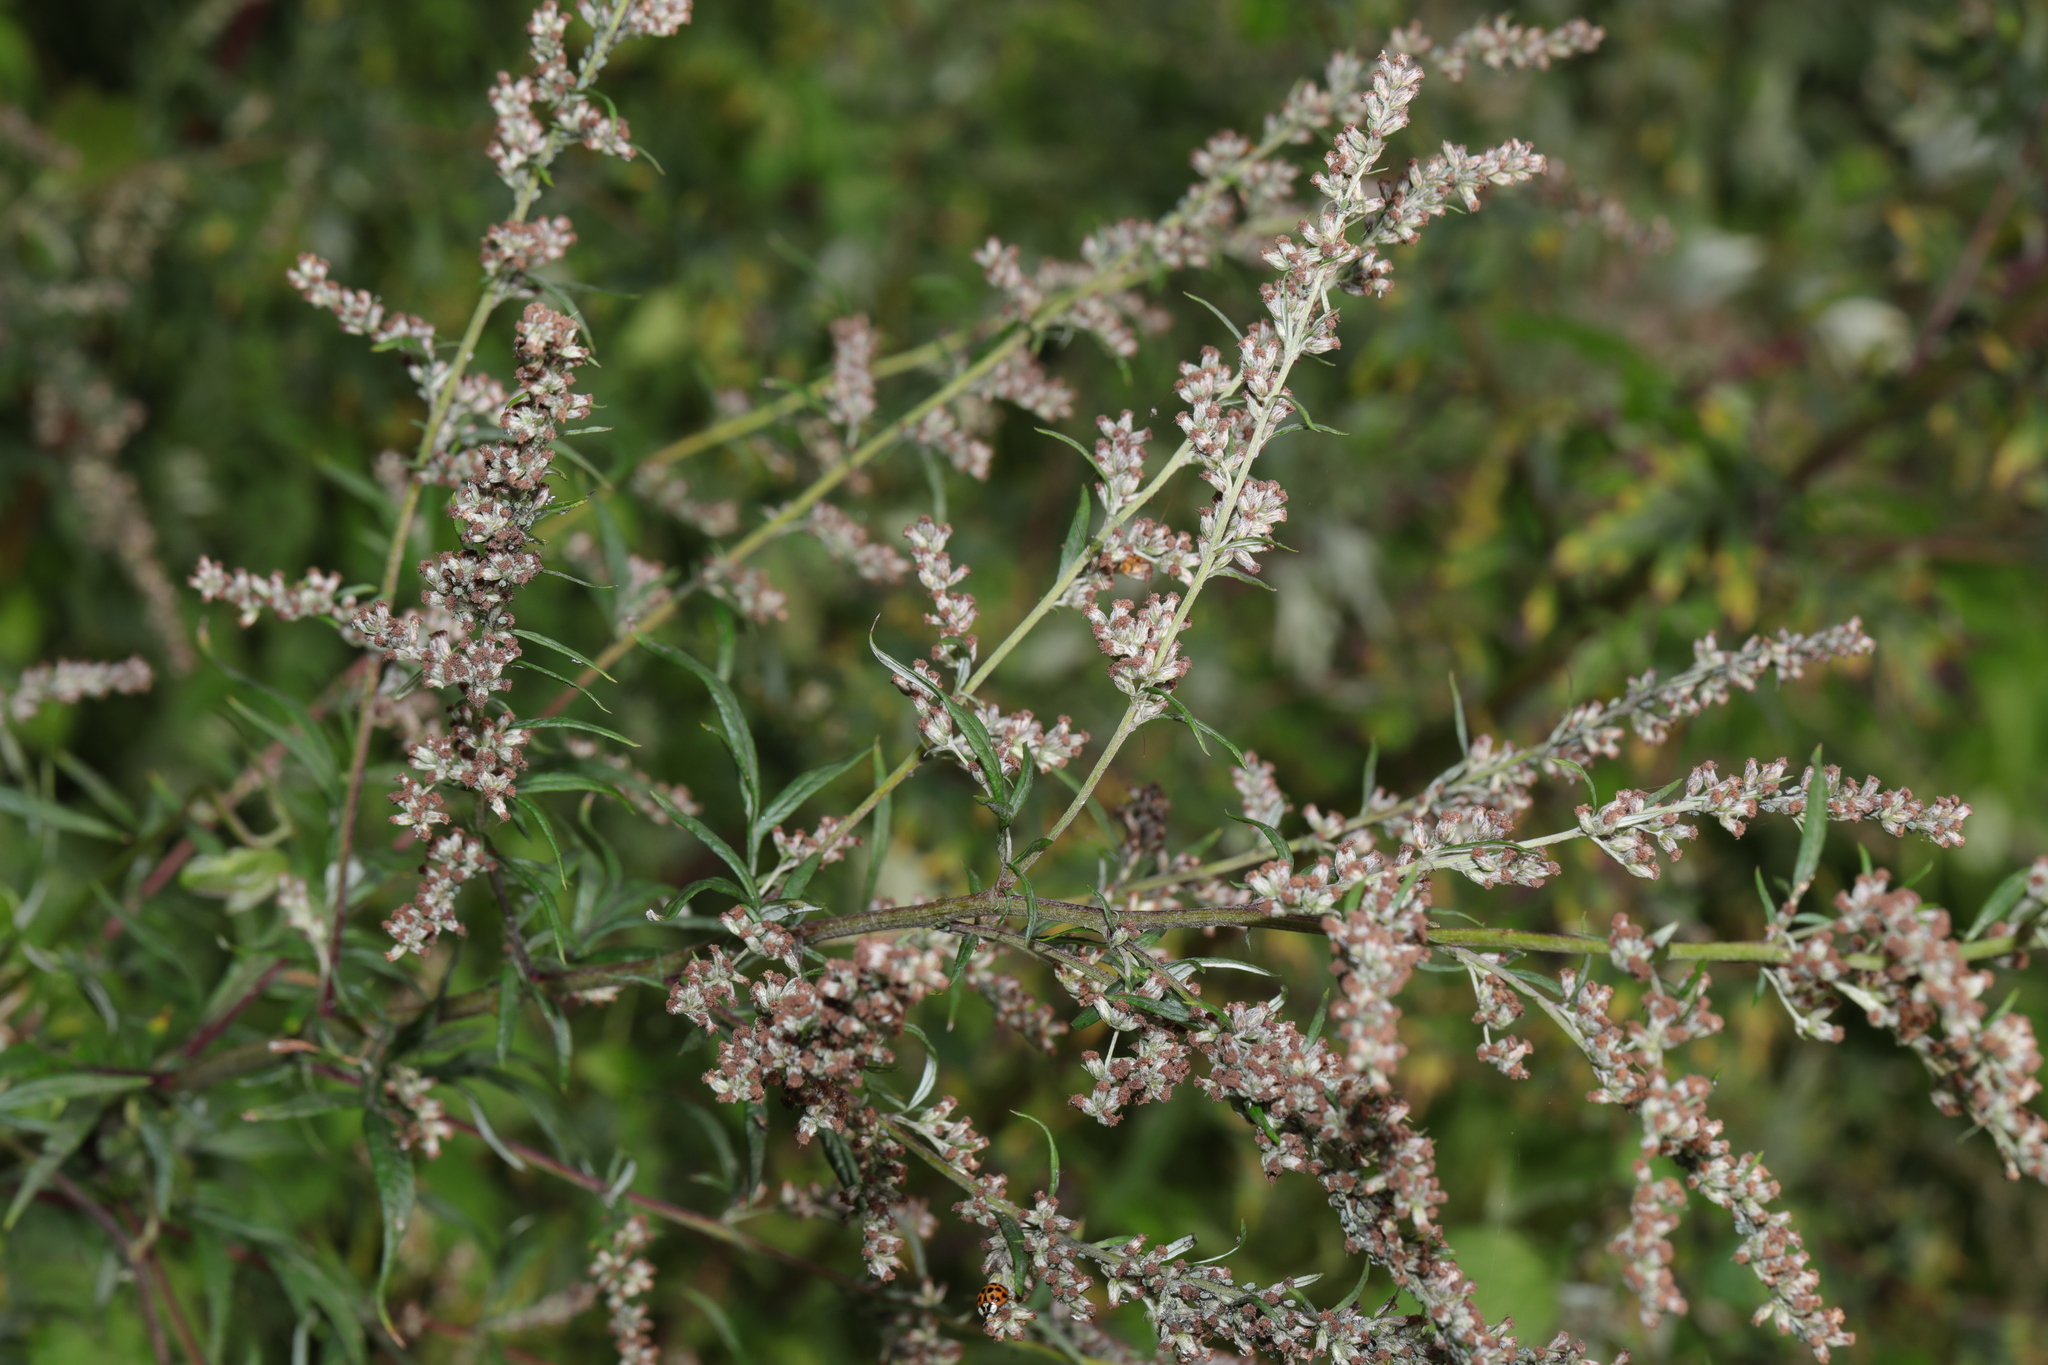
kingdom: Plantae
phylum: Tracheophyta
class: Magnoliopsida
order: Asterales
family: Asteraceae
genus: Artemisia
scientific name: Artemisia vulgaris
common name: Mugwort
